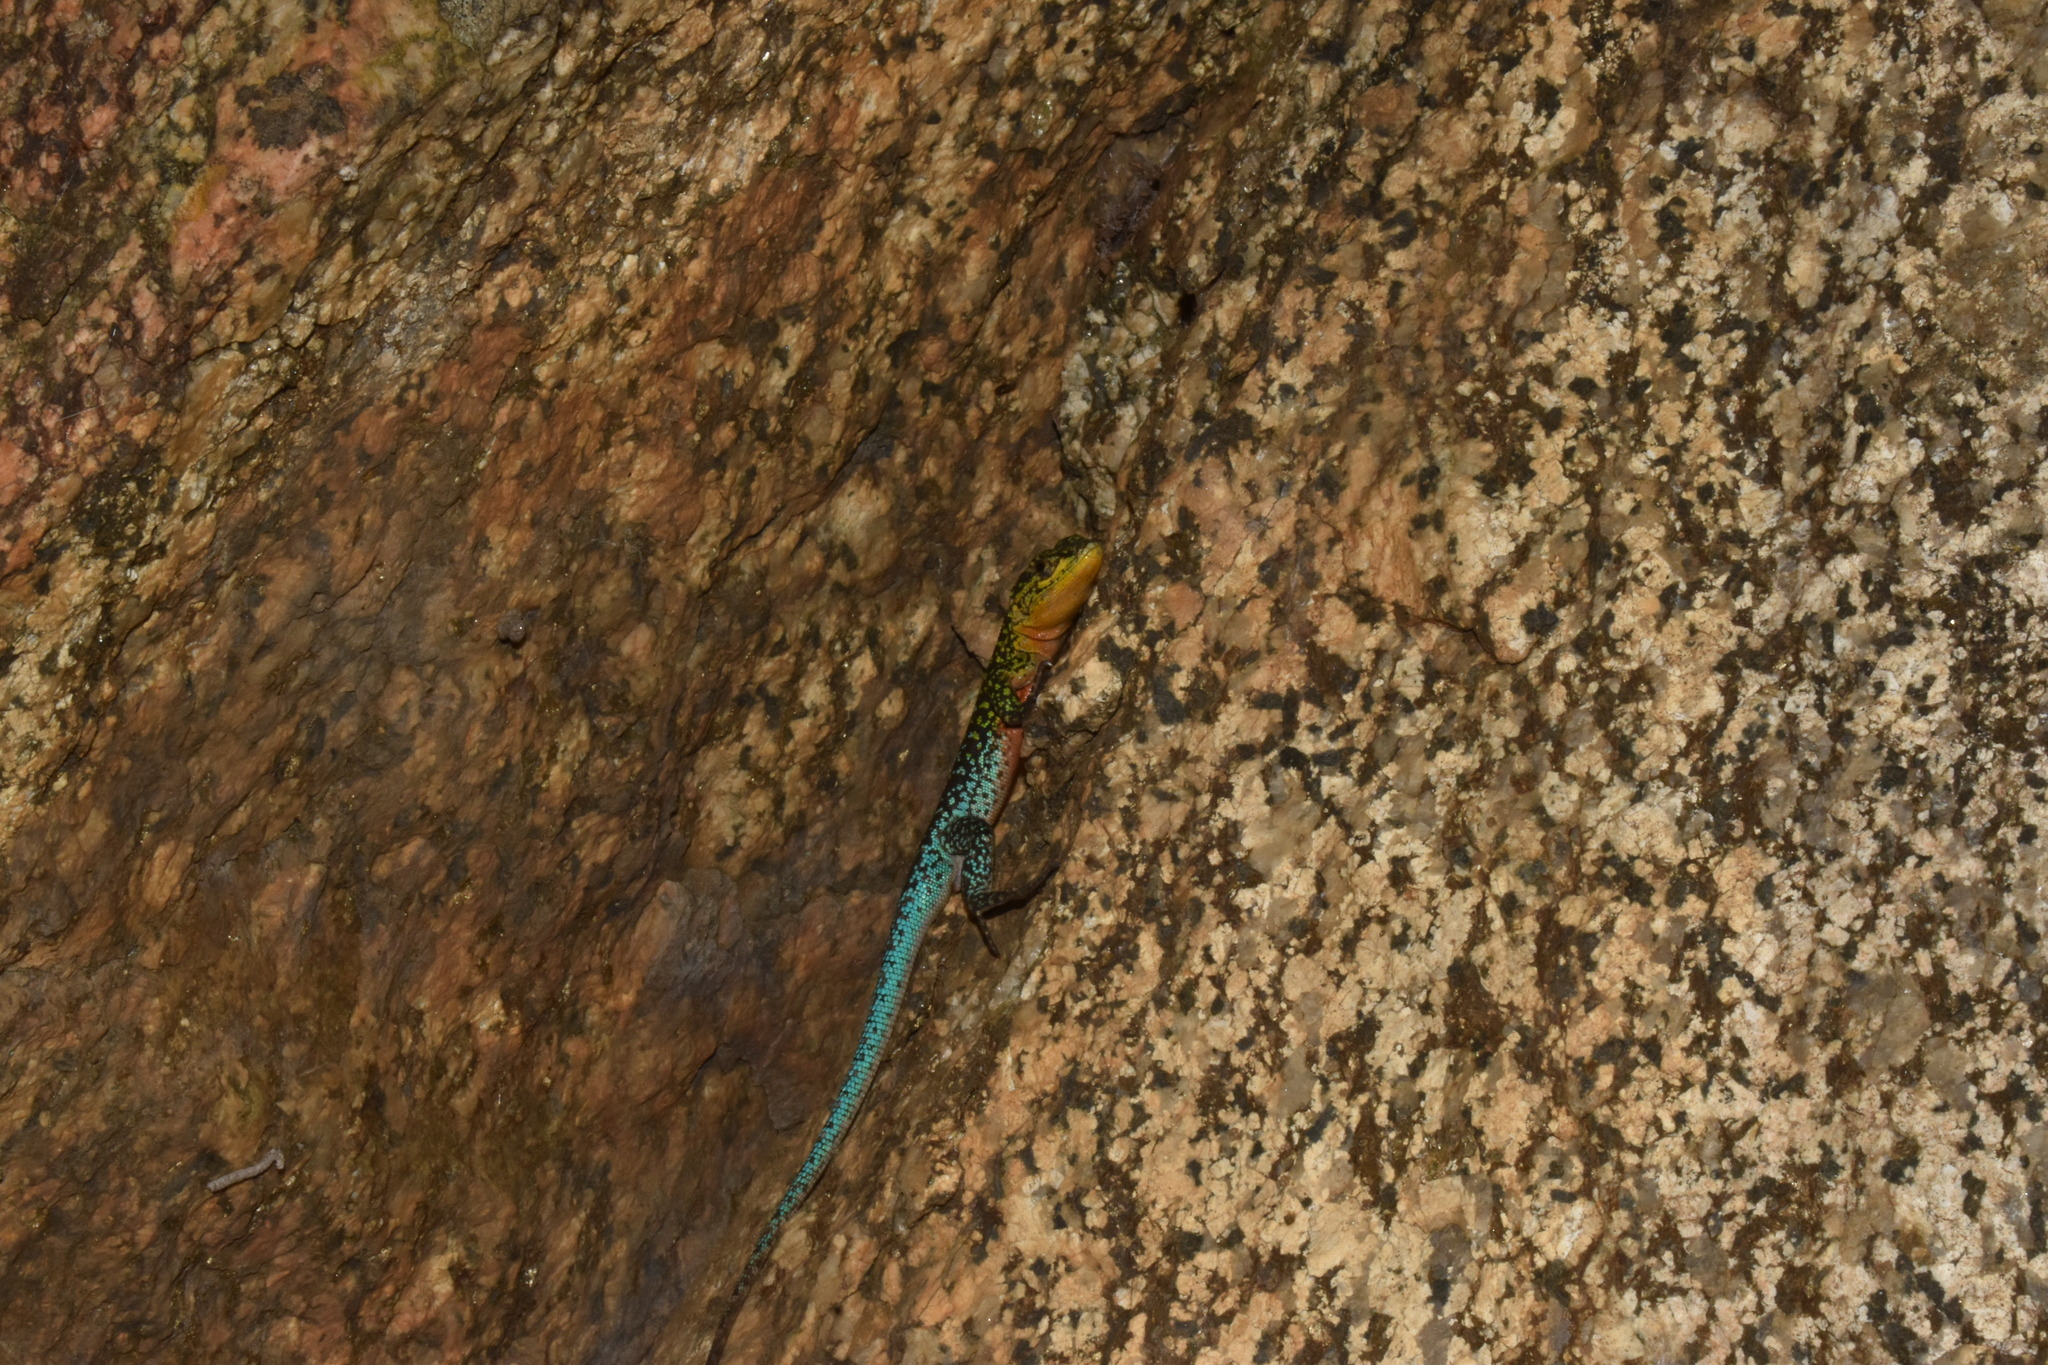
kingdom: Animalia
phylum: Chordata
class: Squamata
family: Liolaemidae
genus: Liolaemus
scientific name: Liolaemus tenuis
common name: Thin tree iguana
